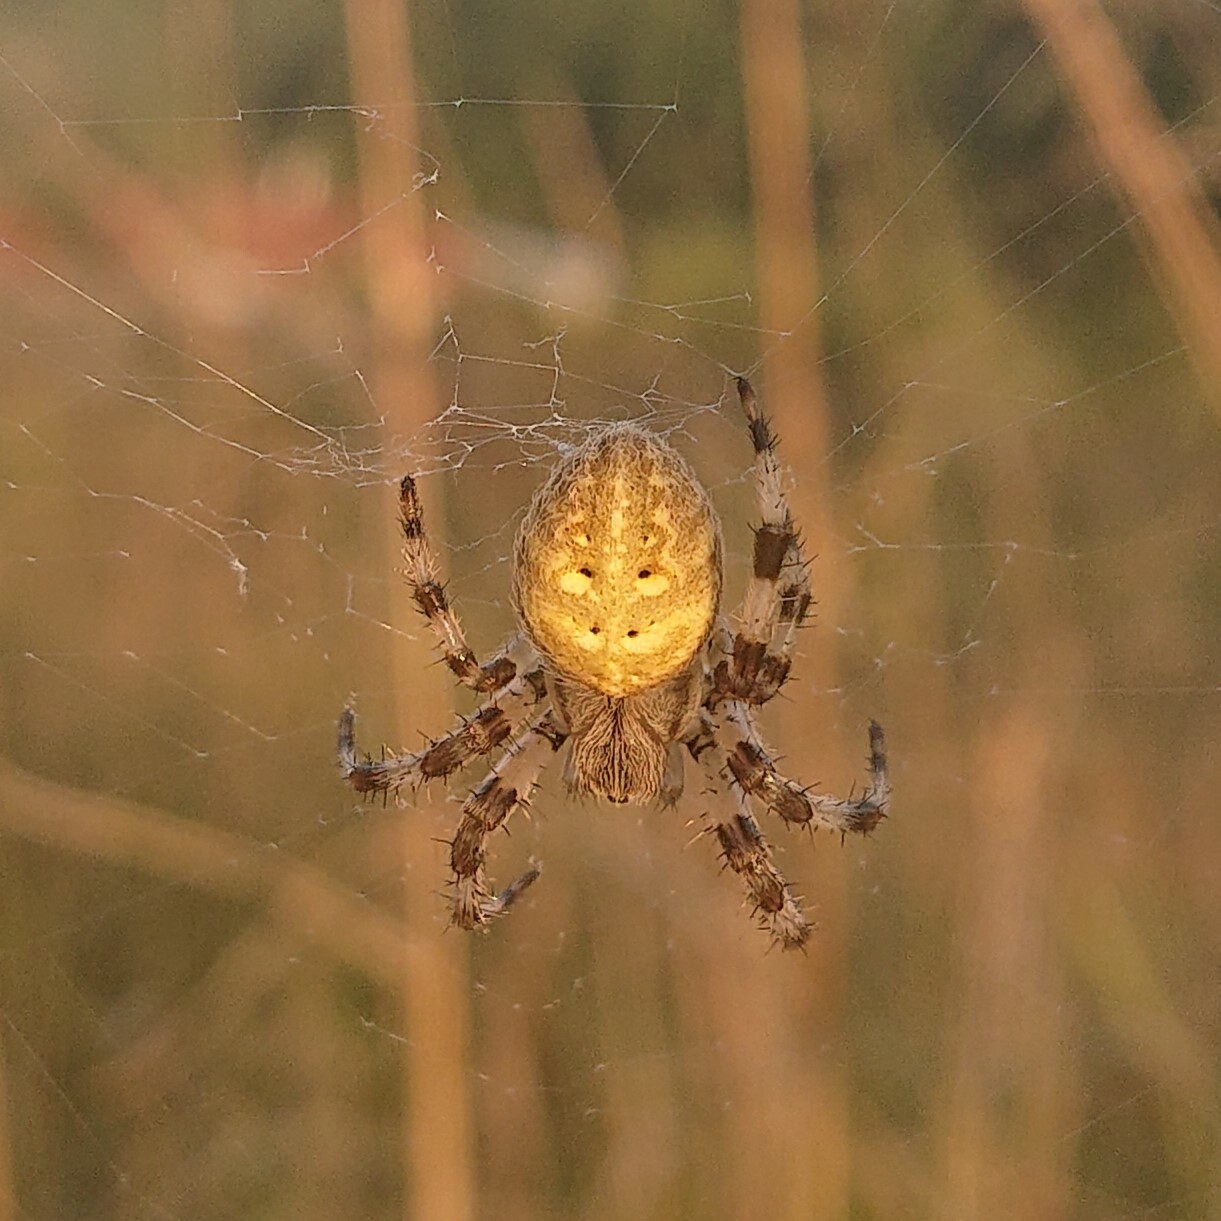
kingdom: Animalia
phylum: Arthropoda
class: Arachnida
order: Araneae
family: Araneidae
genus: Araneus
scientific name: Araneus quadratus
